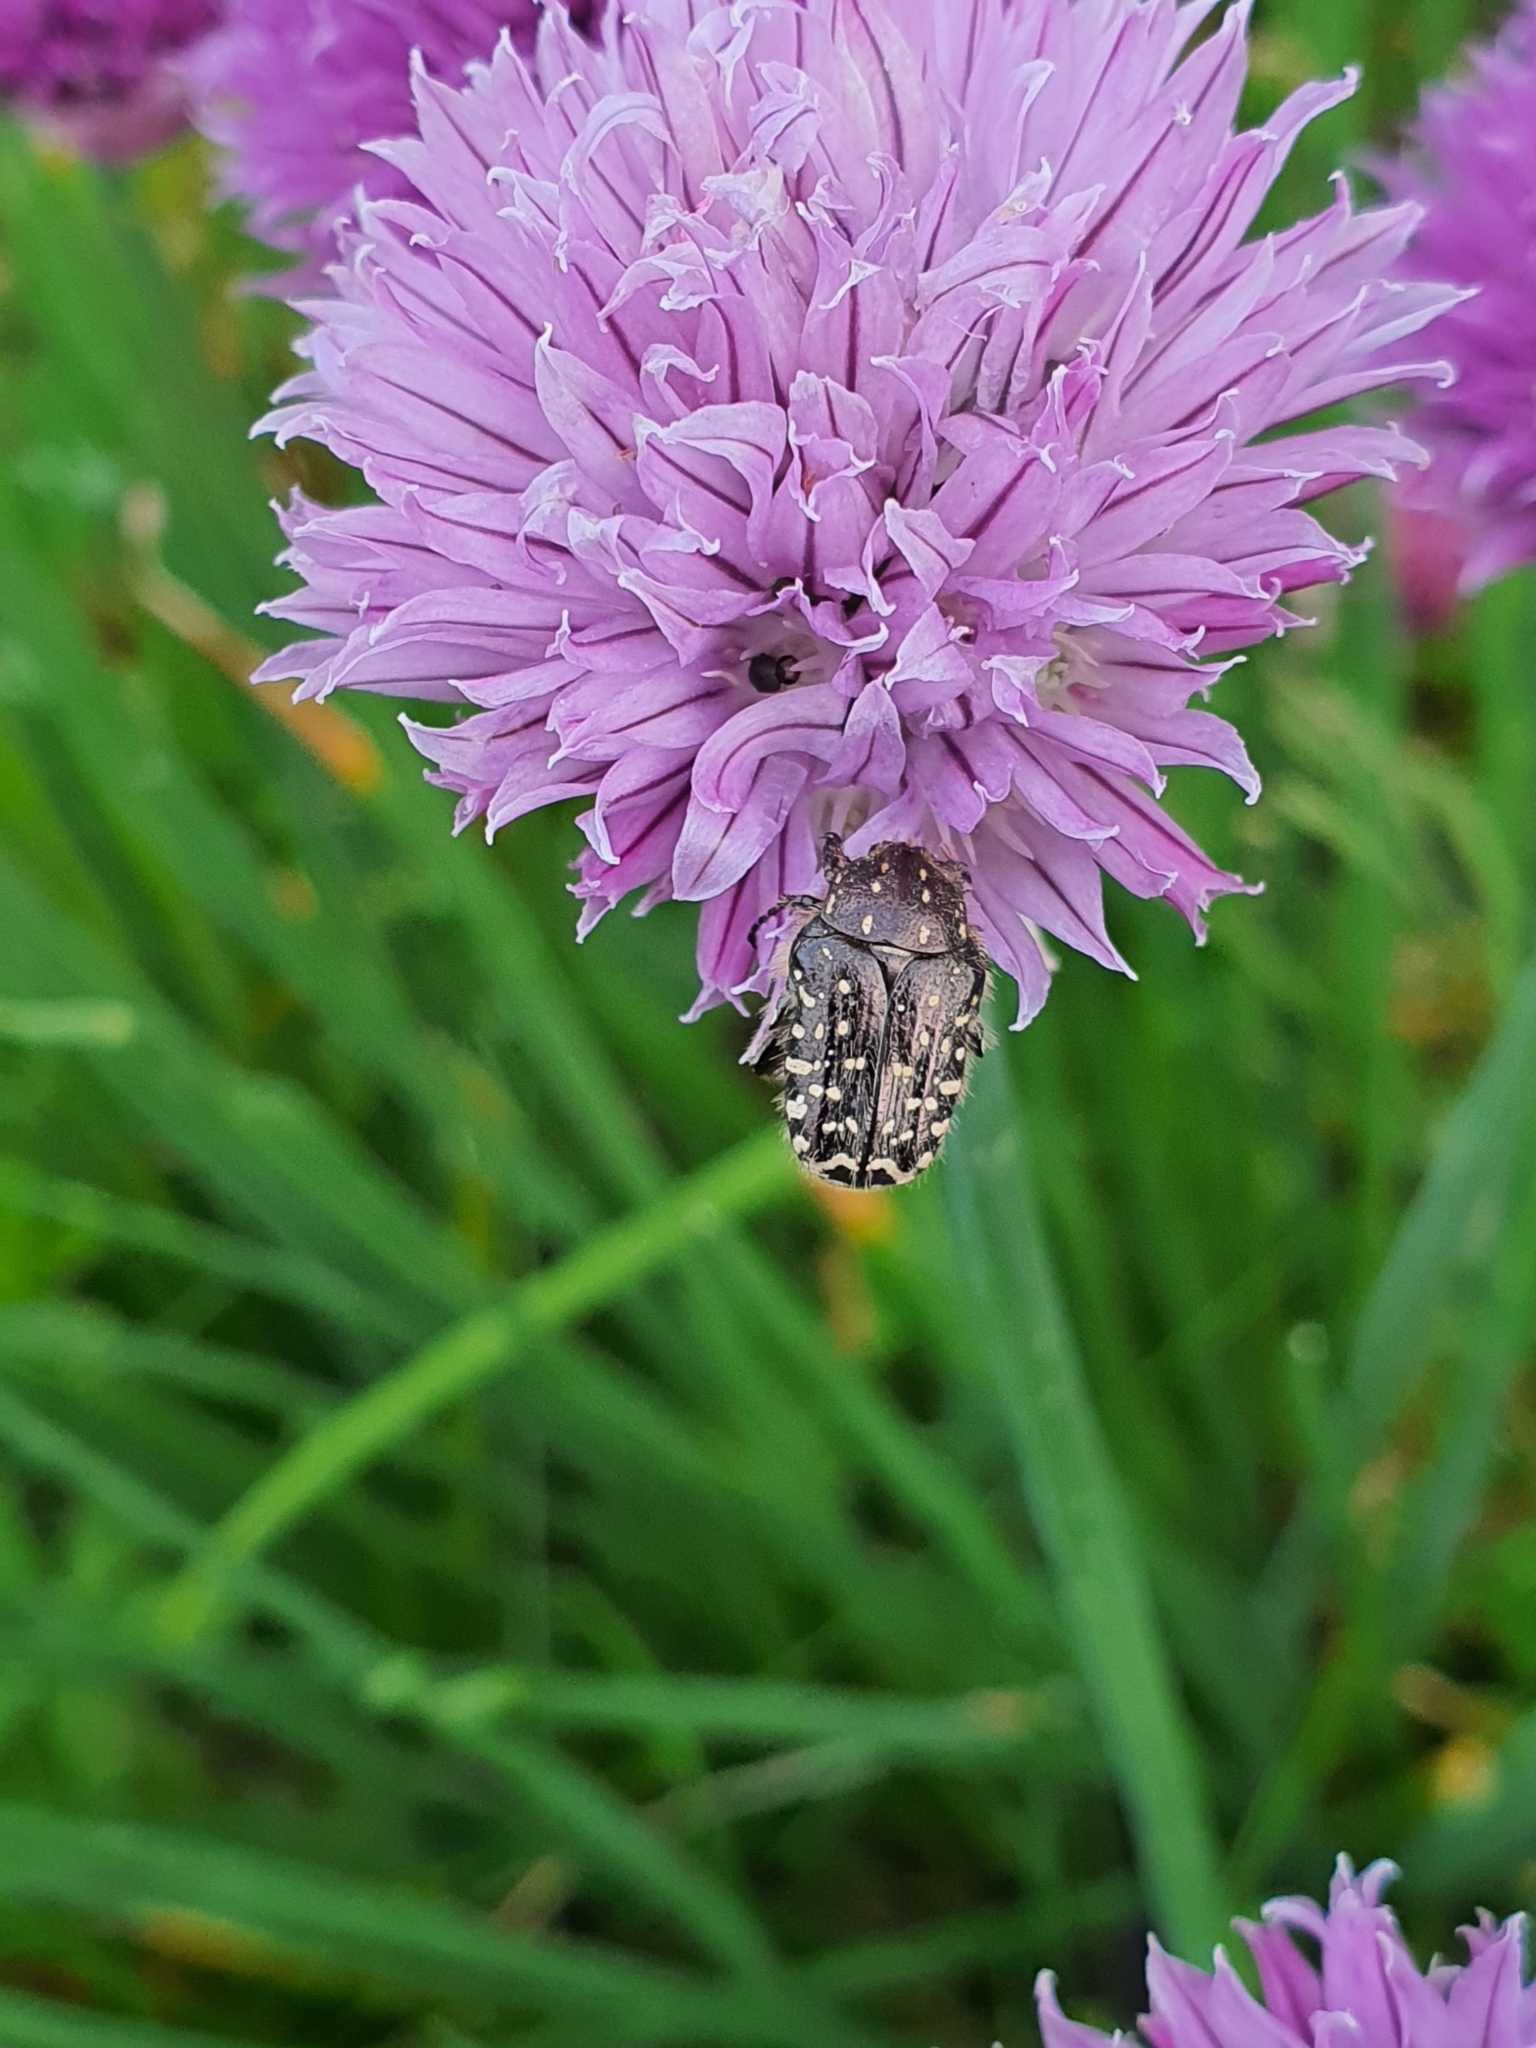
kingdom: Animalia
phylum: Arthropoda
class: Insecta
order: Coleoptera
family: Scarabaeidae
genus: Oxythyrea
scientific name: Oxythyrea funesta
